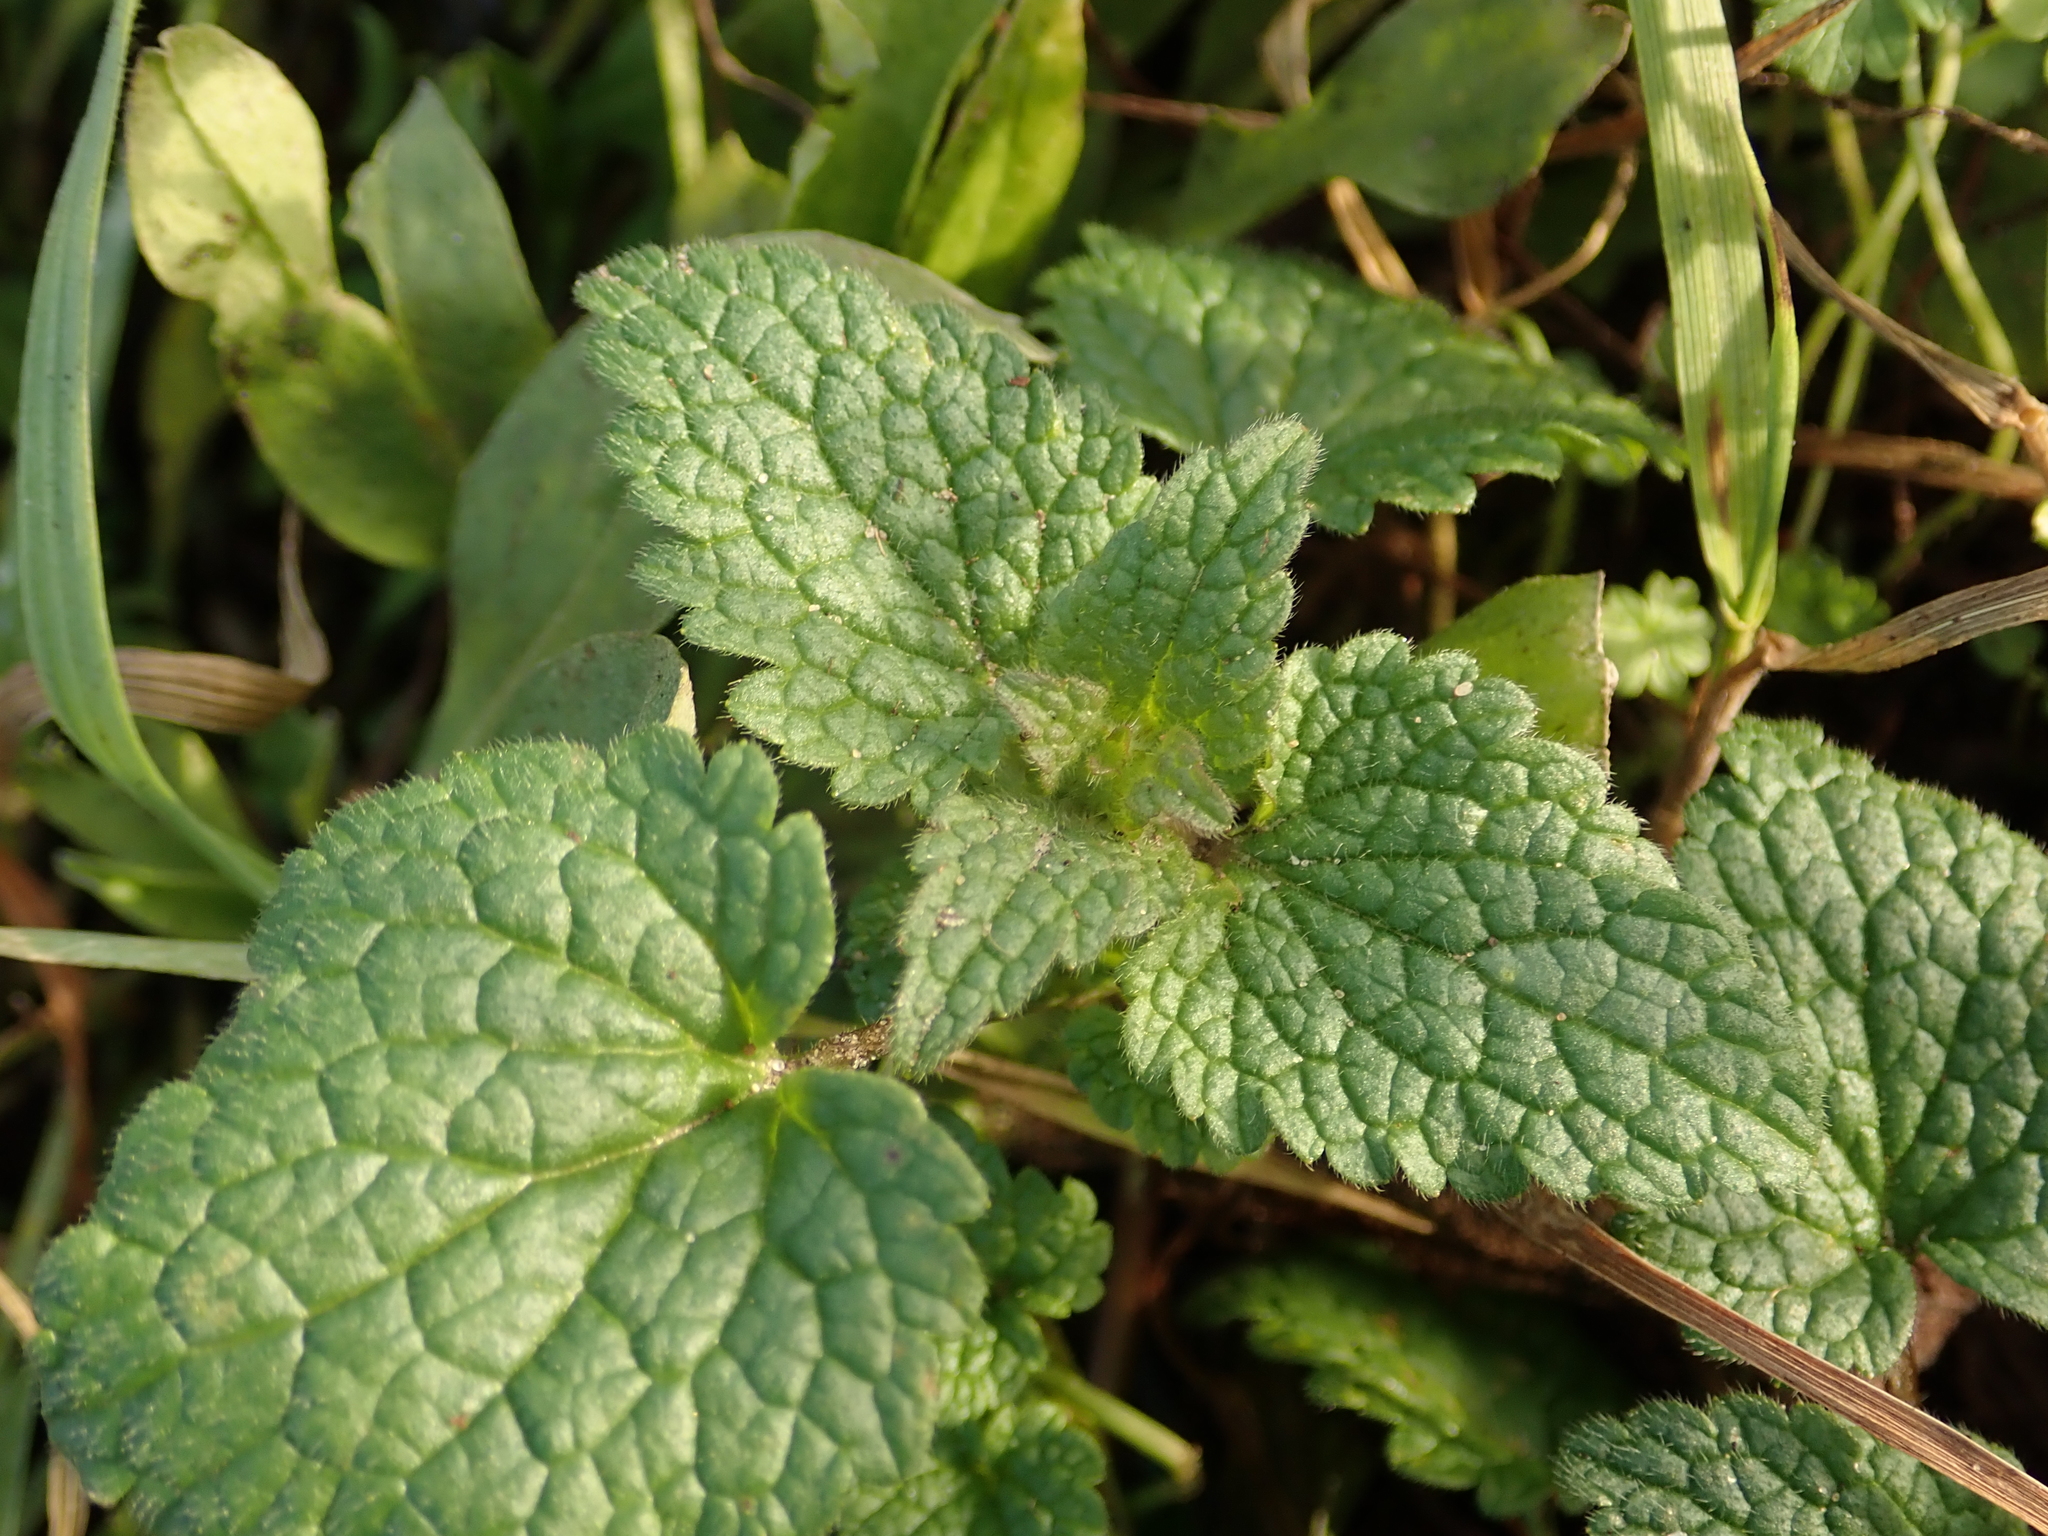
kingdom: Plantae
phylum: Tracheophyta
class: Magnoliopsida
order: Lamiales
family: Lamiaceae
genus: Lamium
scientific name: Lamium purpureum
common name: Red dead-nettle
